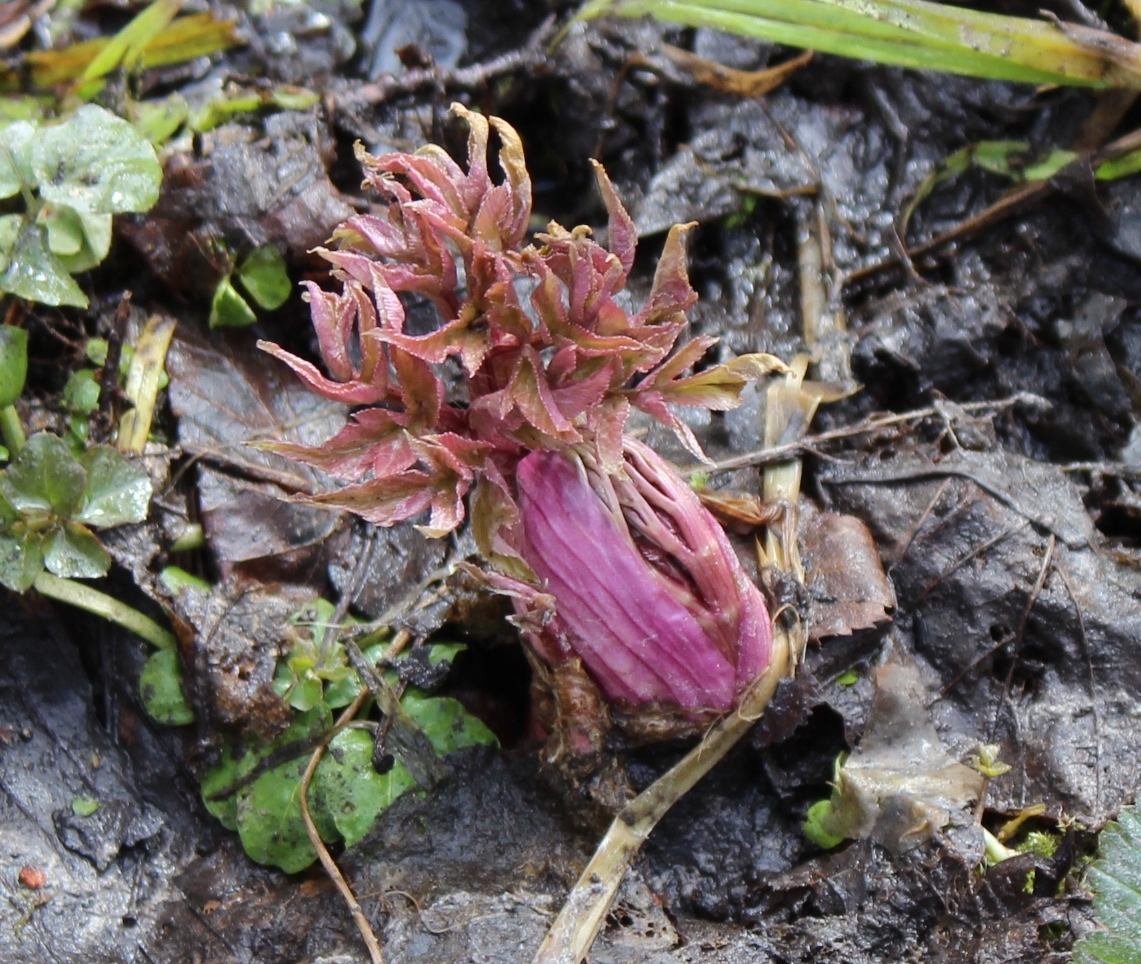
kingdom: Plantae
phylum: Tracheophyta
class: Magnoliopsida
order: Apiales
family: Apiaceae
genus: Angelica
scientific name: Angelica sylvestris
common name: Wild angelica
